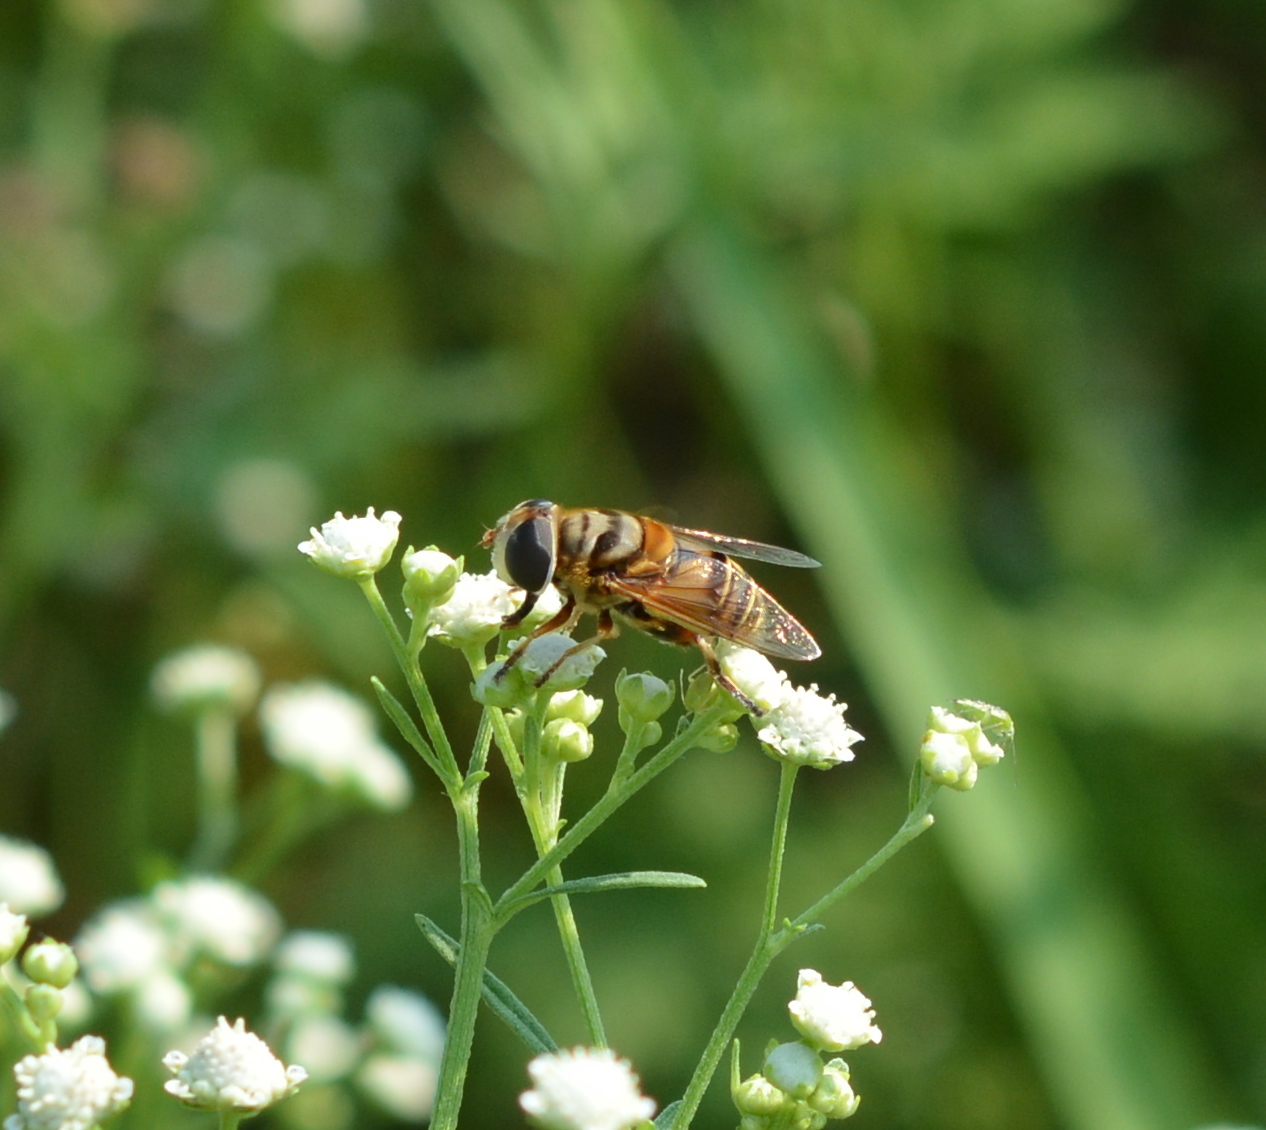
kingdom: Animalia
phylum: Arthropoda
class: Insecta
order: Diptera
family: Syrphidae
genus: Palpada
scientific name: Palpada vinetorum
